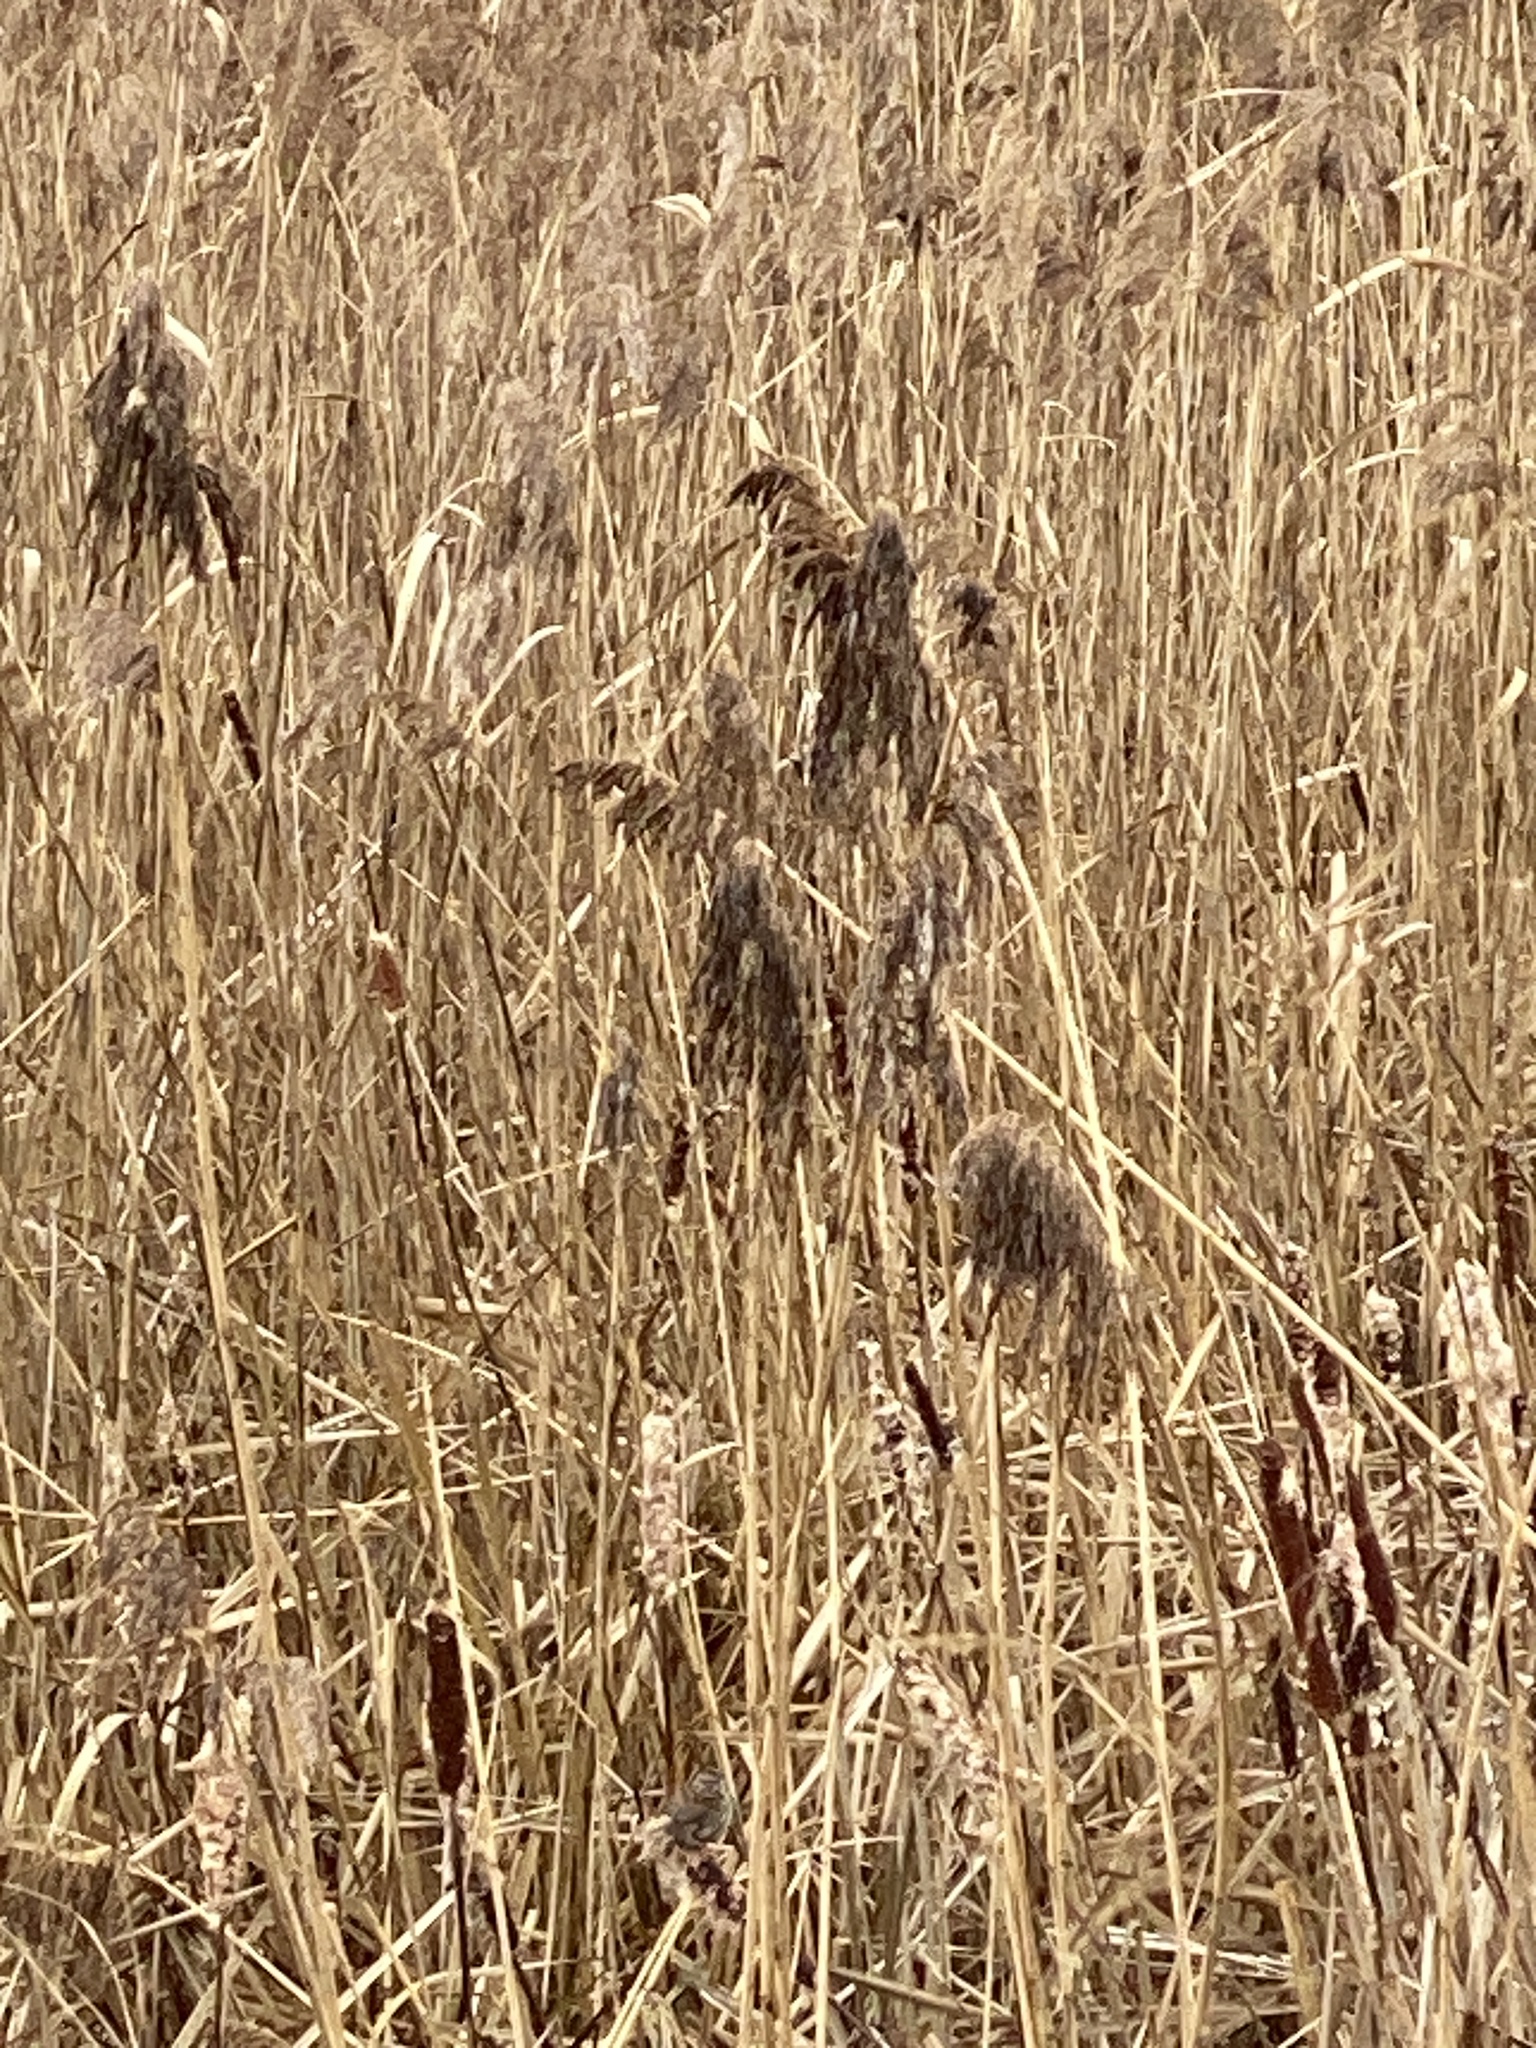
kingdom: Plantae
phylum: Tracheophyta
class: Liliopsida
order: Poales
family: Poaceae
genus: Phragmites
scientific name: Phragmites australis
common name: Common reed
